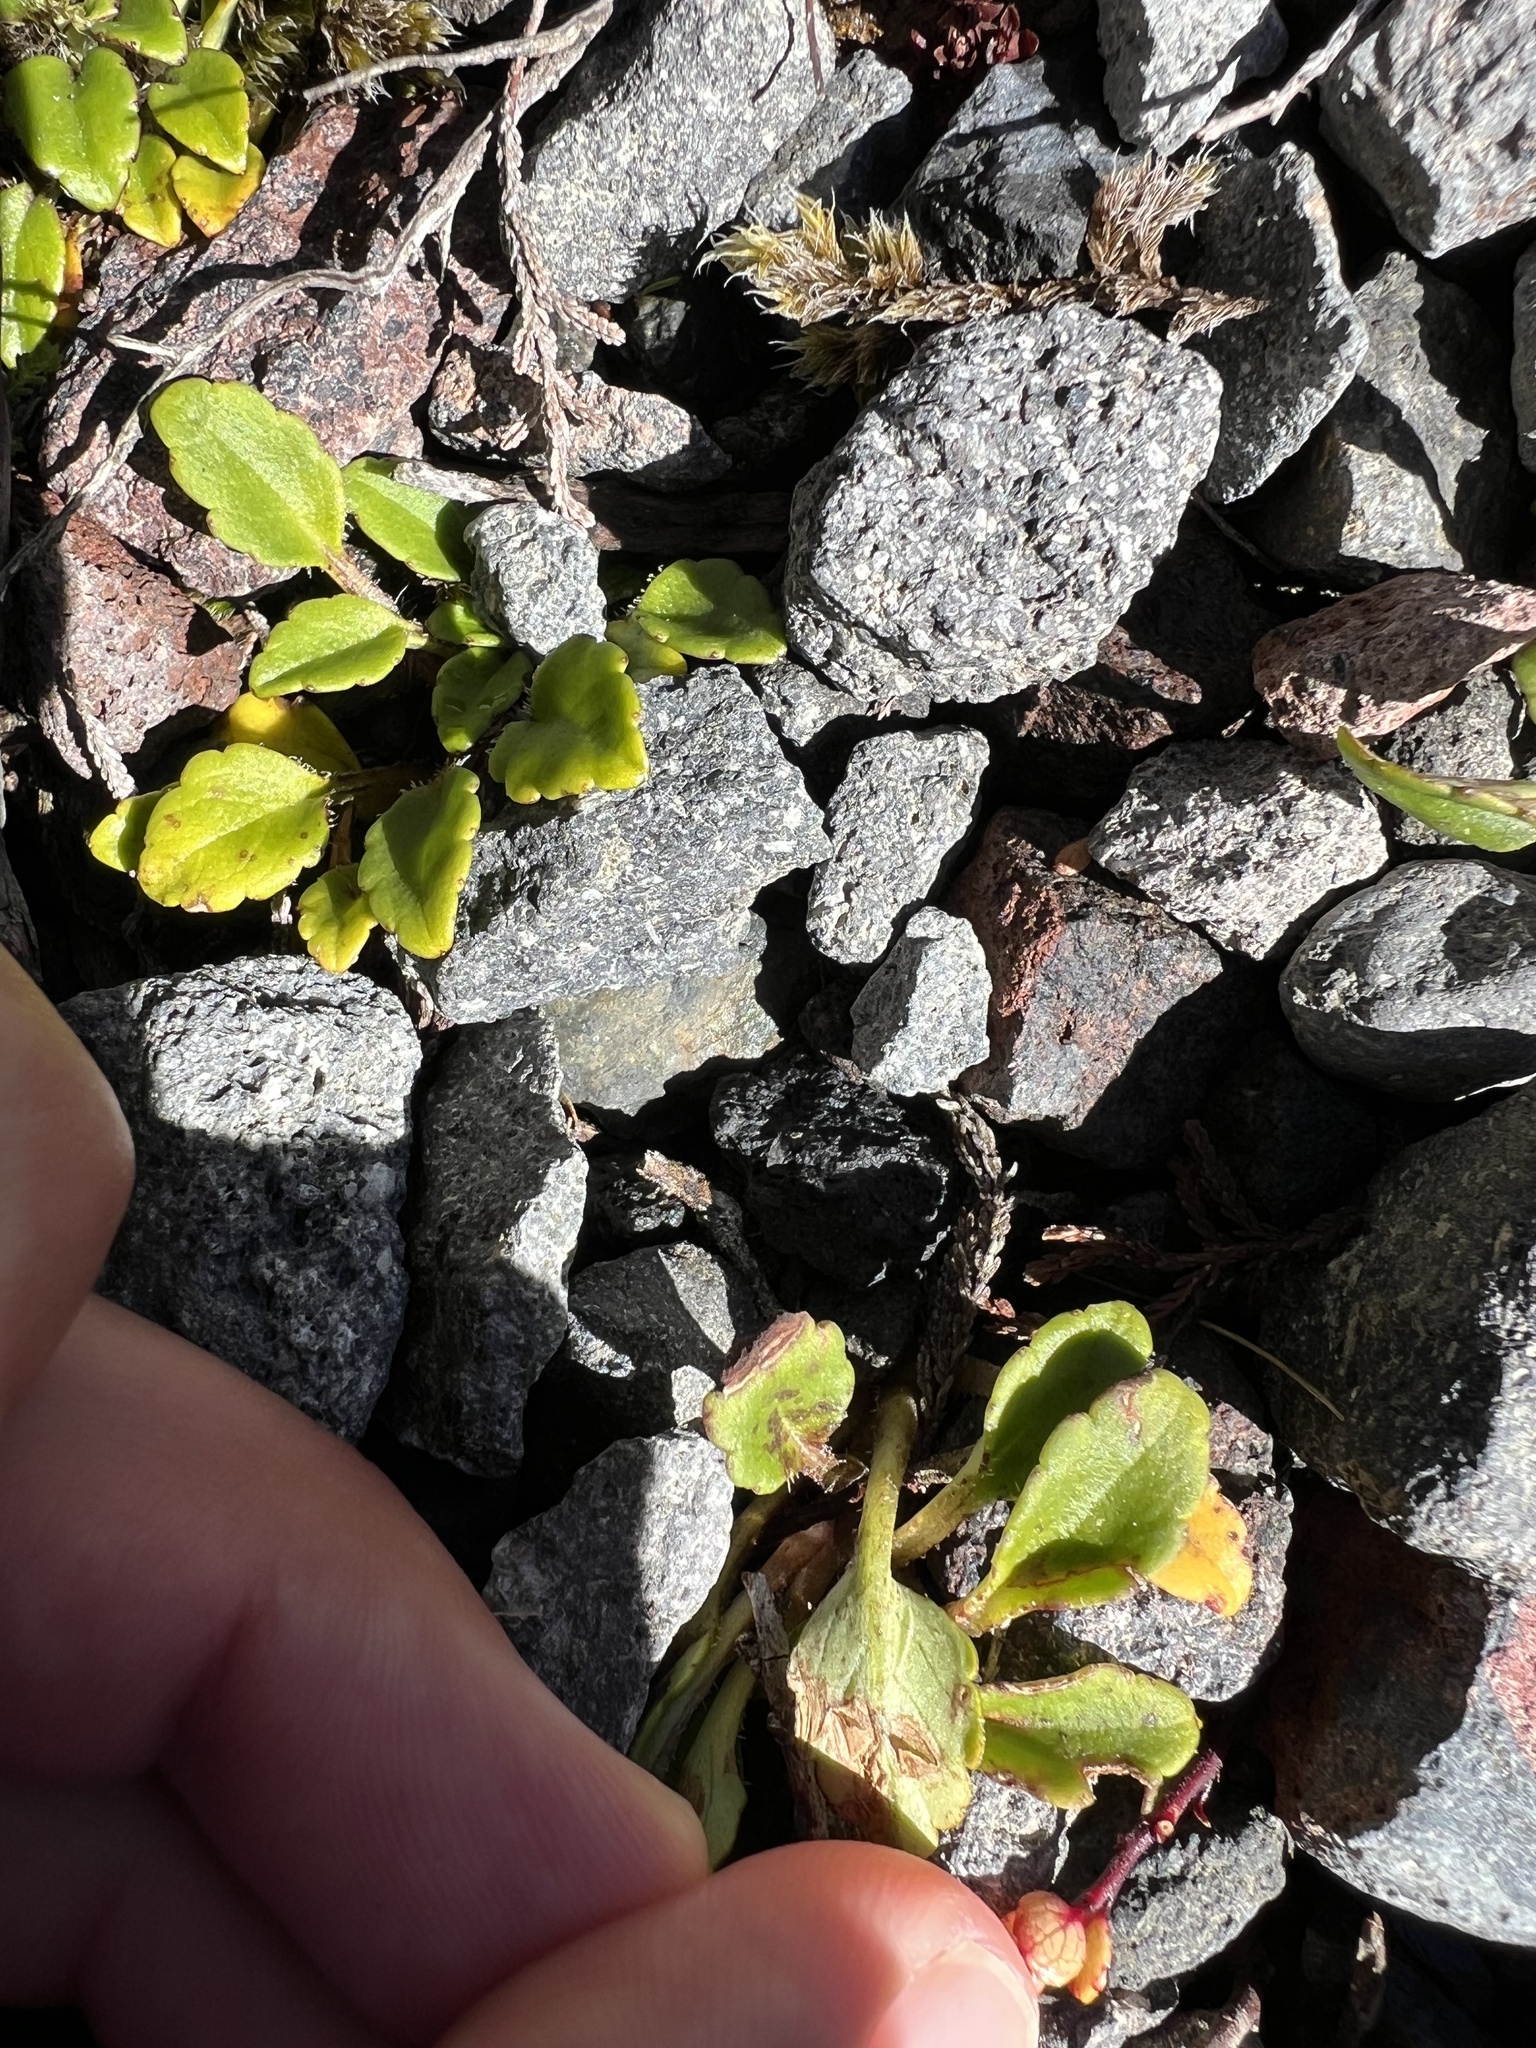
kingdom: Plantae
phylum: Tracheophyta
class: Magnoliopsida
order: Lamiales
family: Plantaginaceae
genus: Ourisia
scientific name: Ourisia vulcanica
